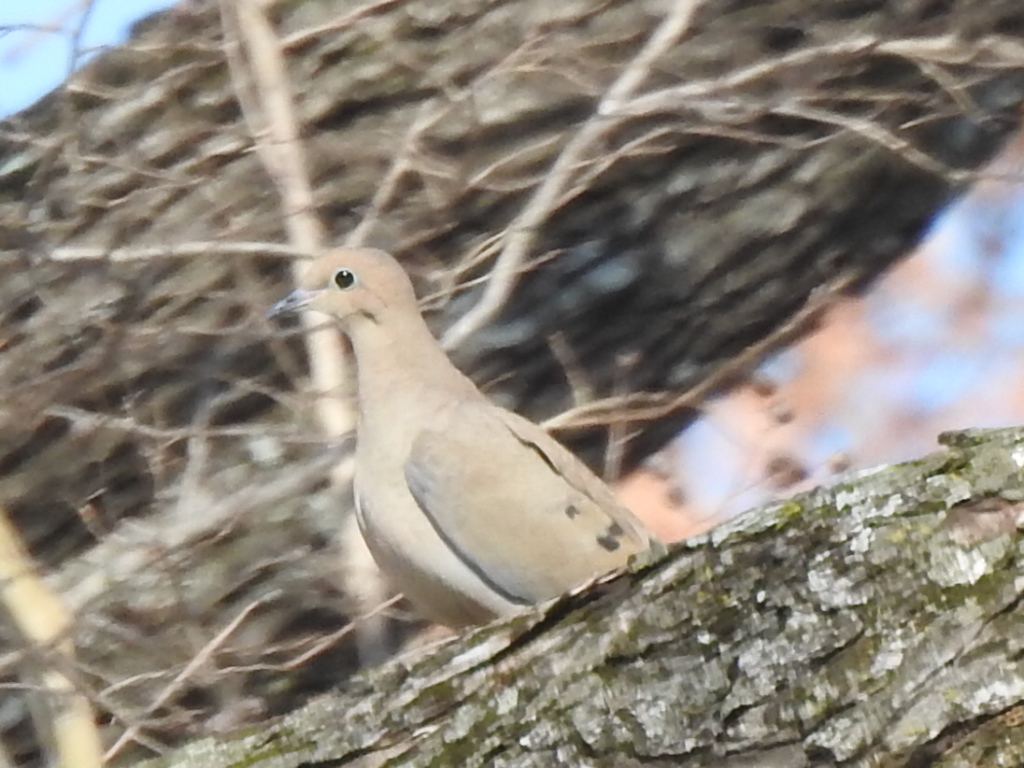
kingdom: Animalia
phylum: Chordata
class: Aves
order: Columbiformes
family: Columbidae
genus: Zenaida
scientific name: Zenaida macroura
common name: Mourning dove
